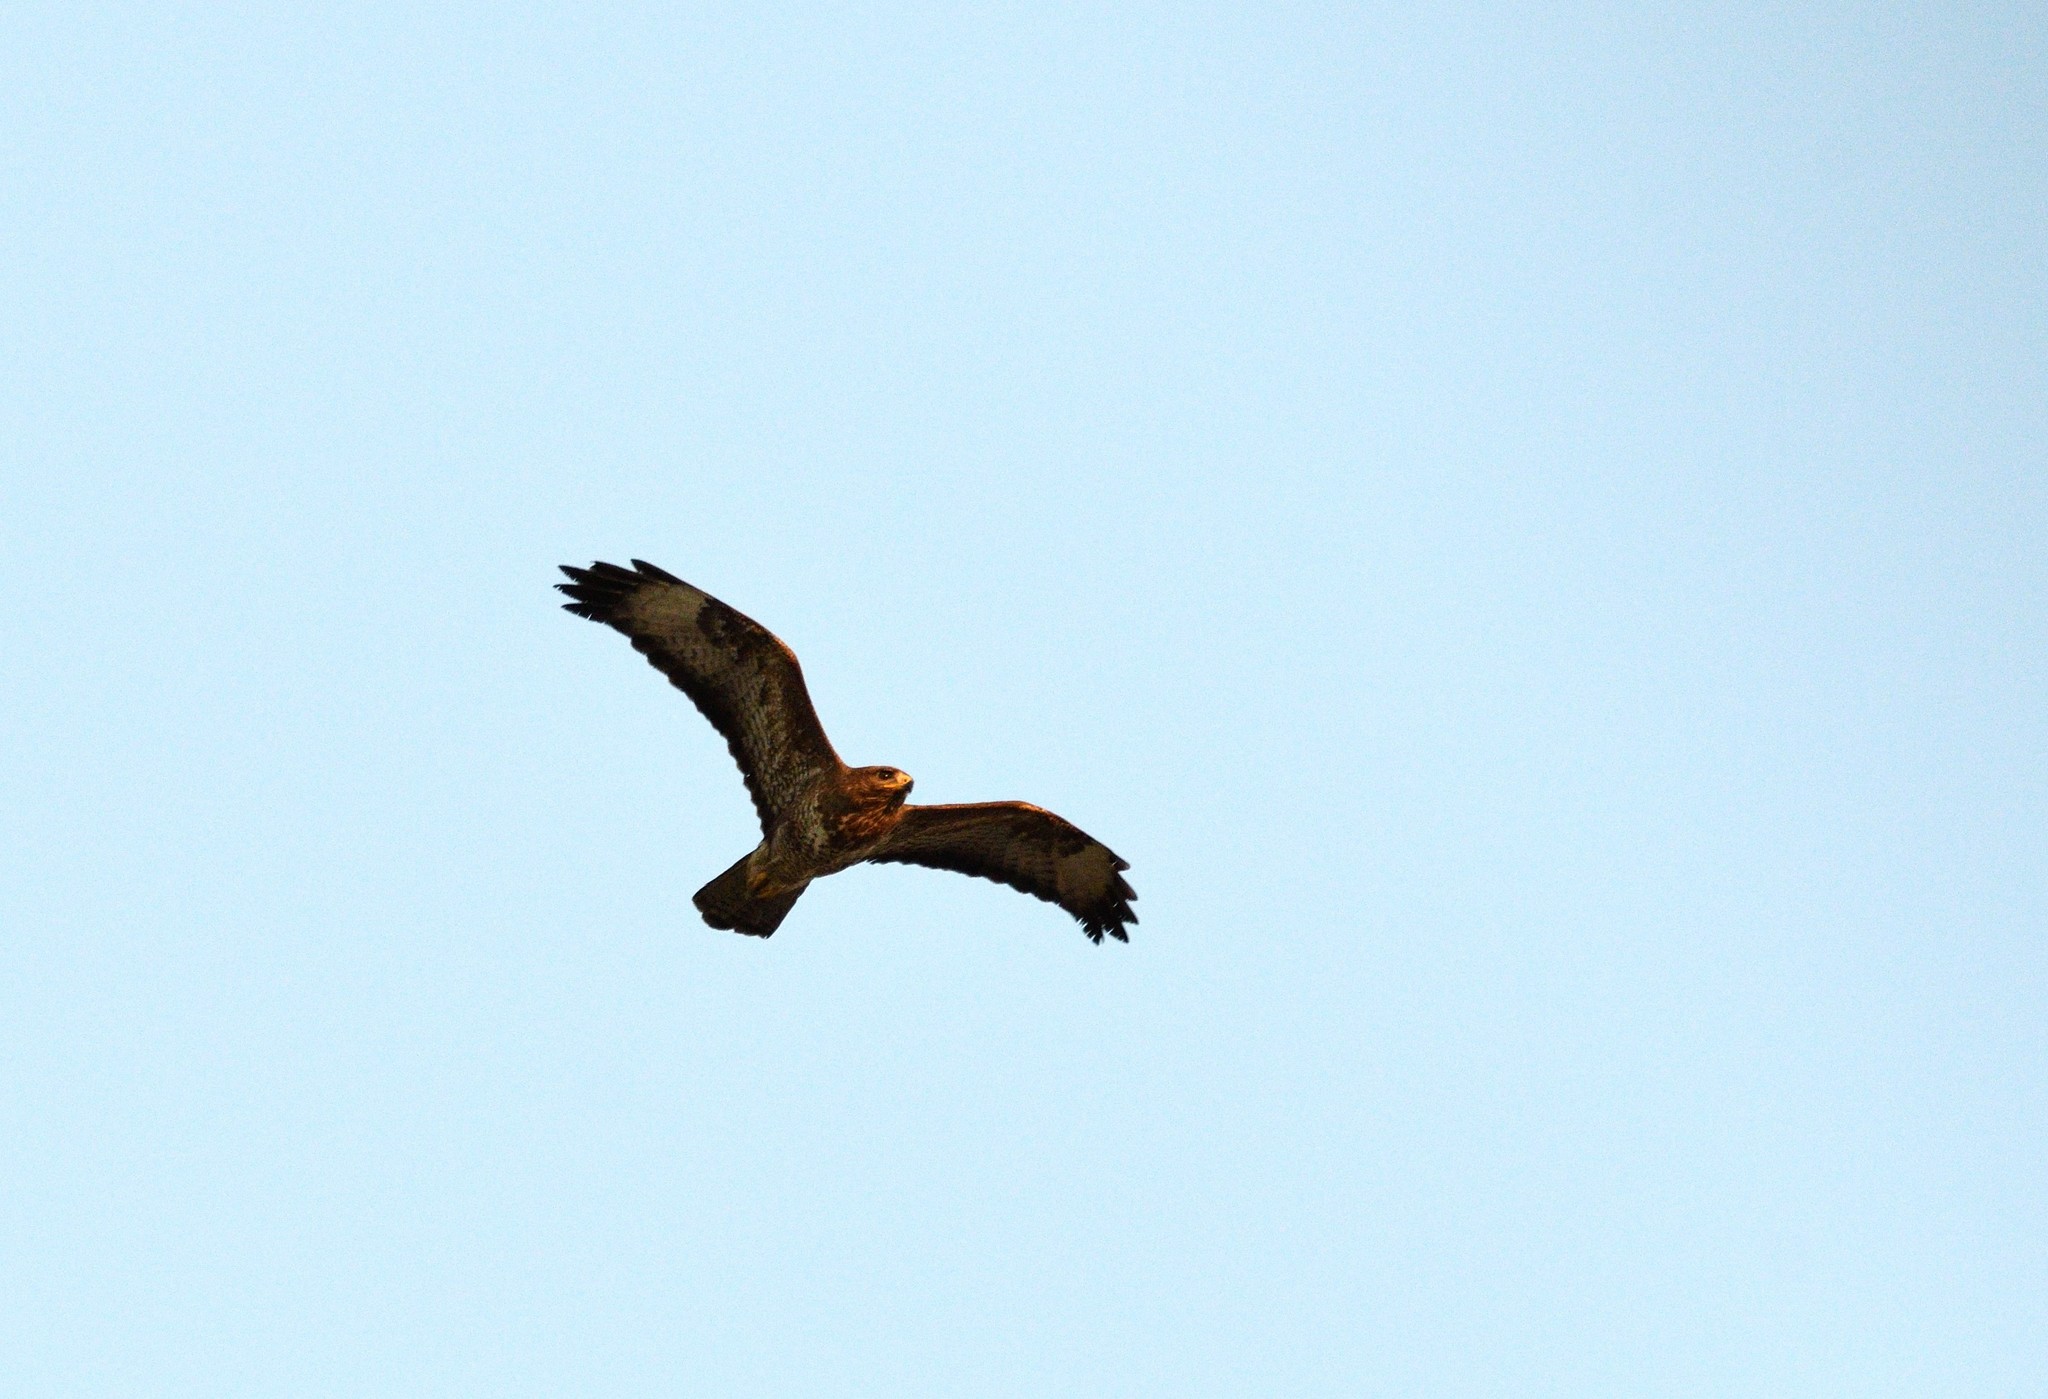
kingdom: Animalia
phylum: Chordata
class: Aves
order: Accipitriformes
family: Accipitridae
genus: Buteo
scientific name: Buteo buteo
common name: Common buzzard
